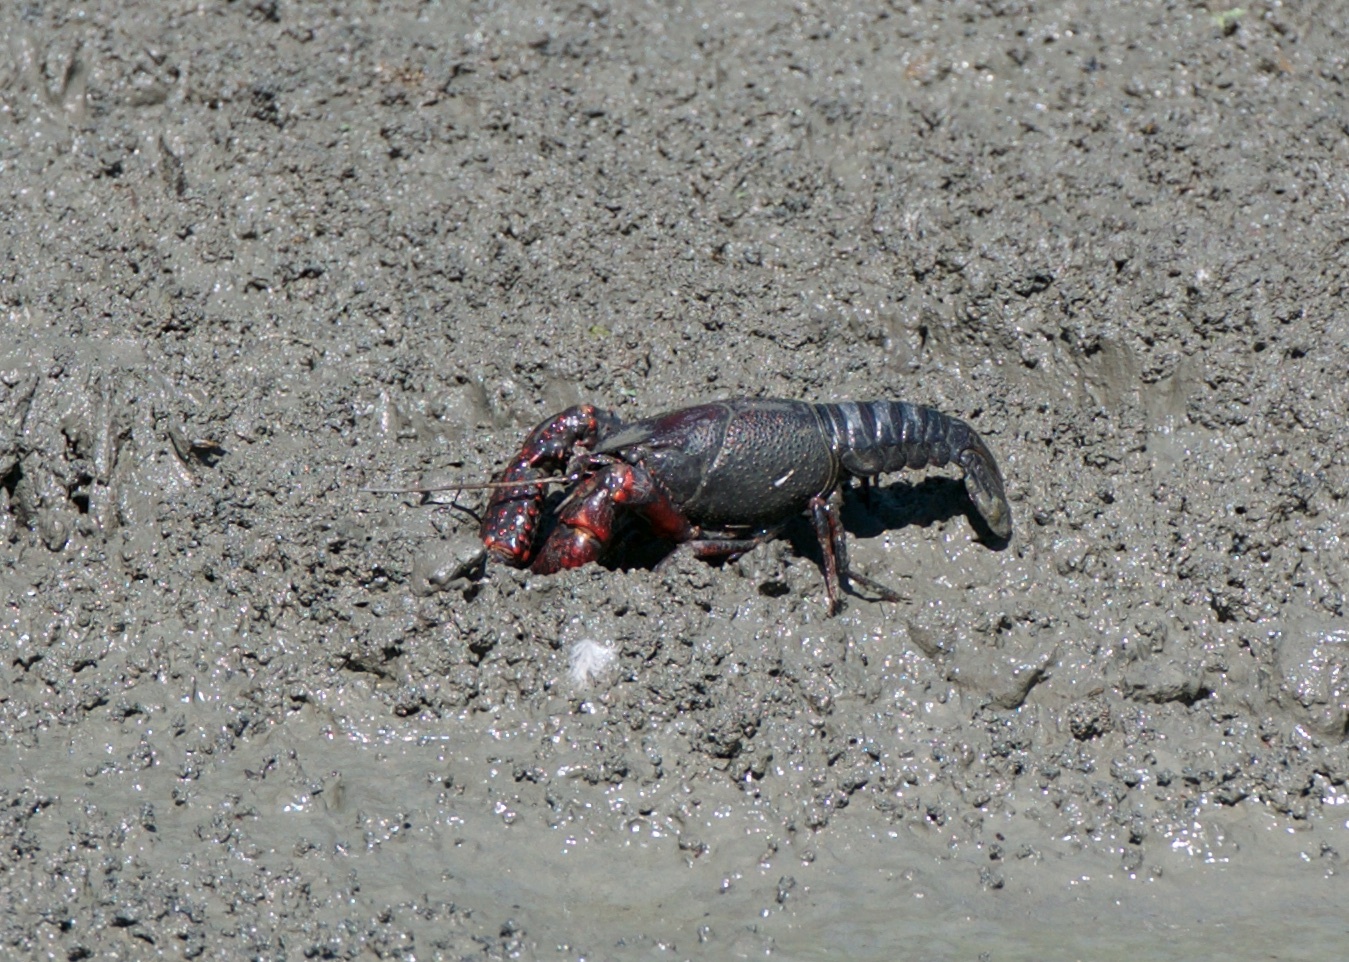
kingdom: Animalia
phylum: Arthropoda
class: Malacostraca
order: Decapoda
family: Cambaridae
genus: Procambarus
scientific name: Procambarus clarkii
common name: Red swamp crayfish
